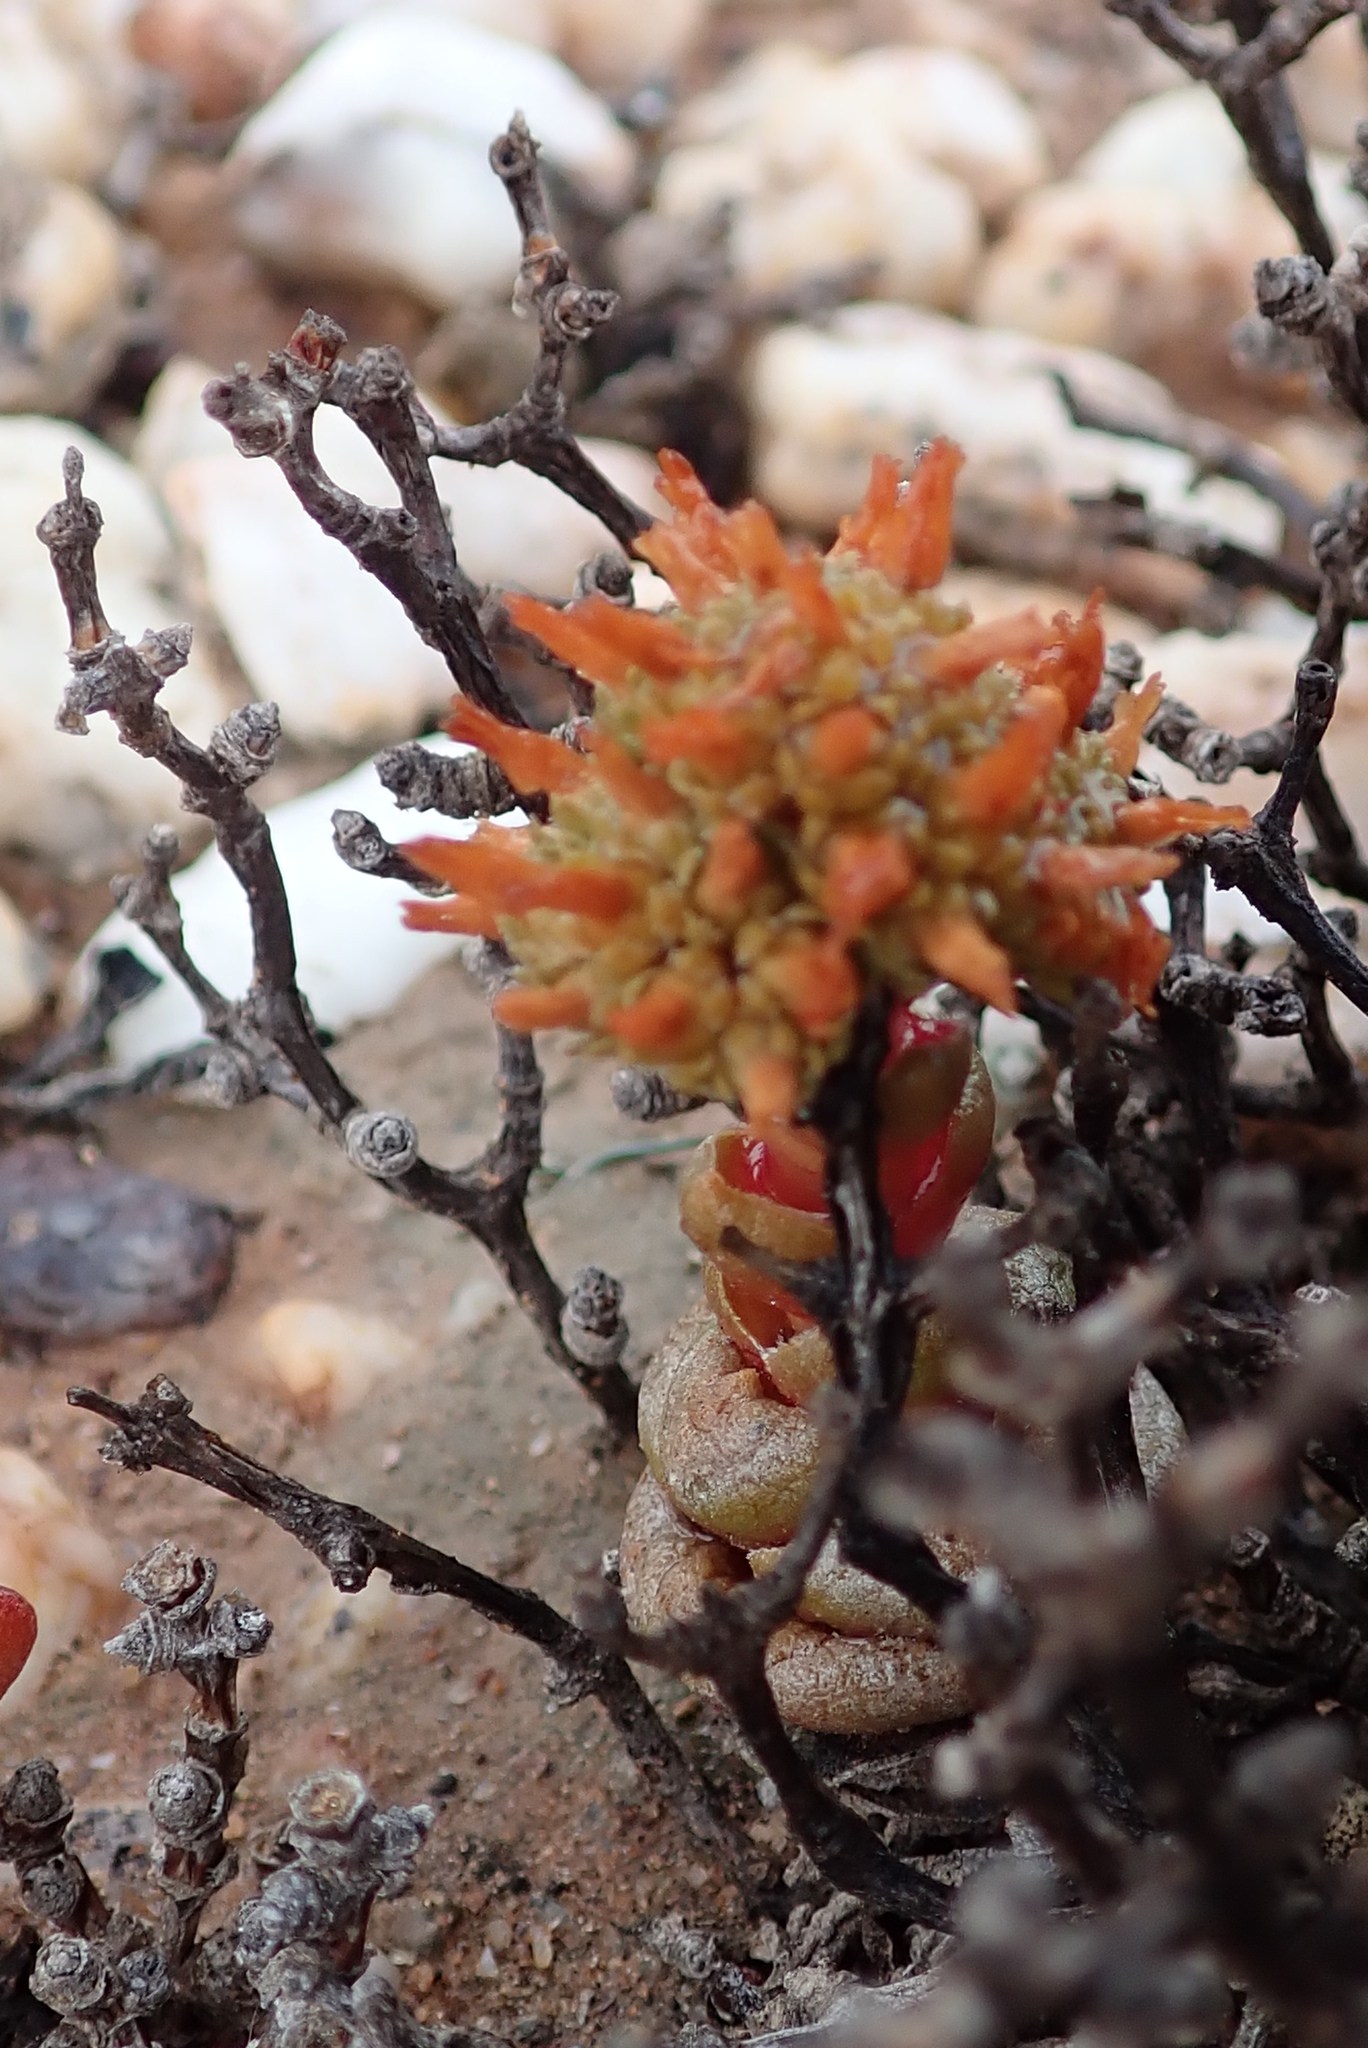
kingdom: Plantae
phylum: Tracheophyta
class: Magnoliopsida
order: Saxifragales
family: Crassulaceae
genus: Crassula
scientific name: Crassula columnaris
